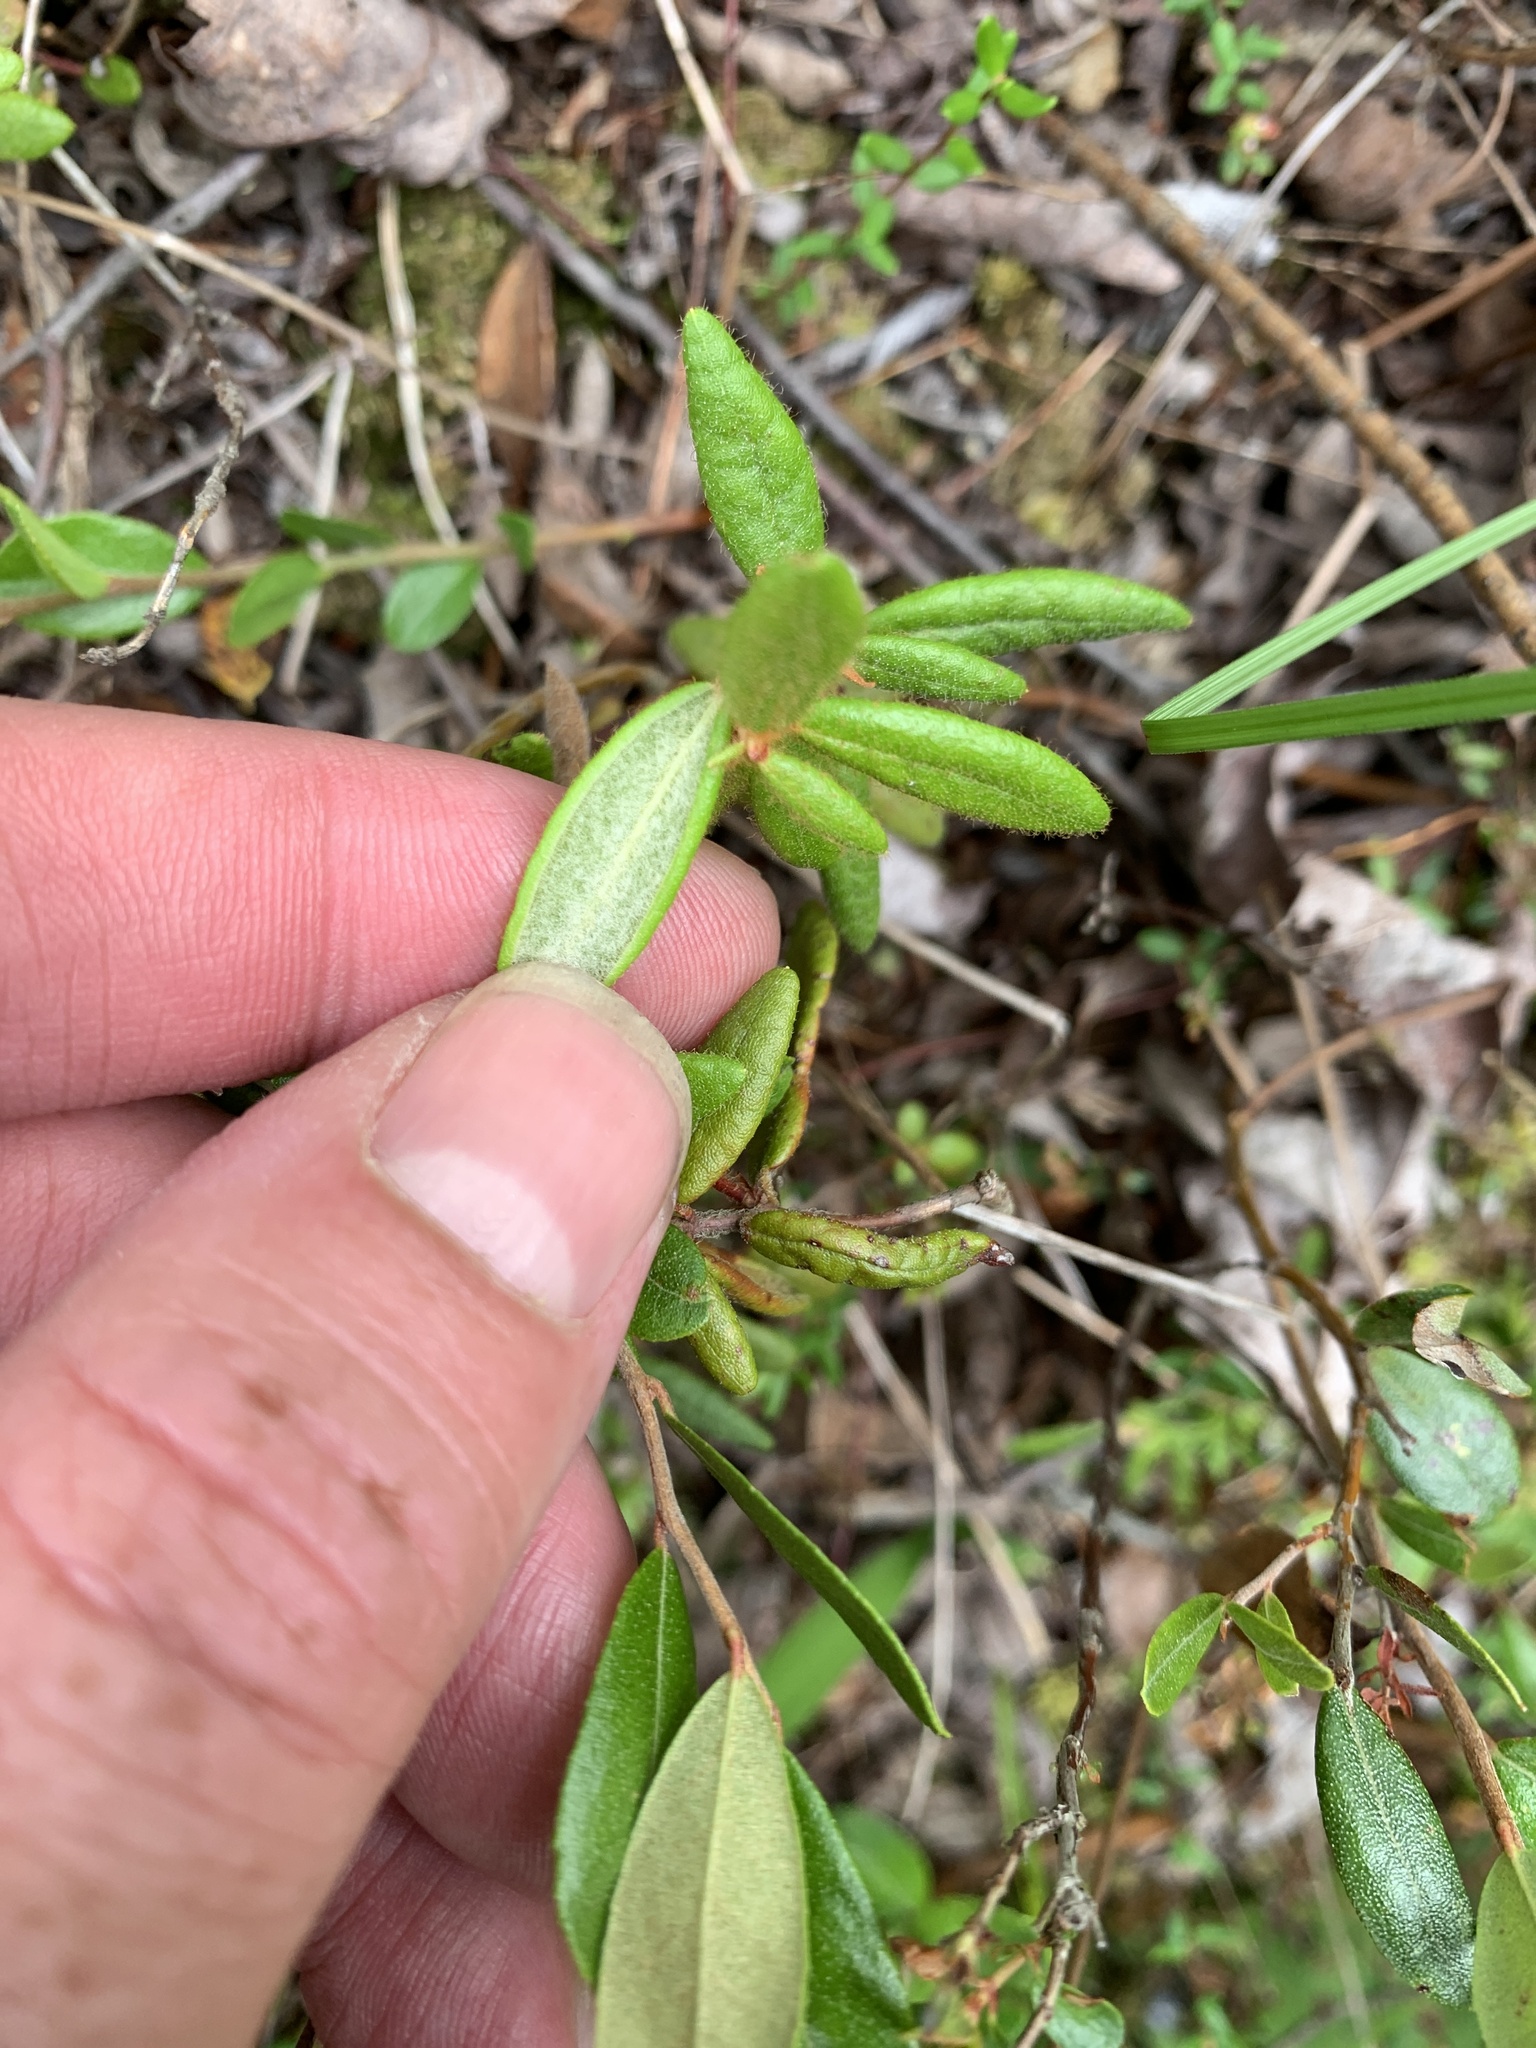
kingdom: Plantae
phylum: Tracheophyta
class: Magnoliopsida
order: Ericales
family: Ericaceae
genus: Rhododendron
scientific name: Rhododendron groenlandicum
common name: Bog labrador tea
